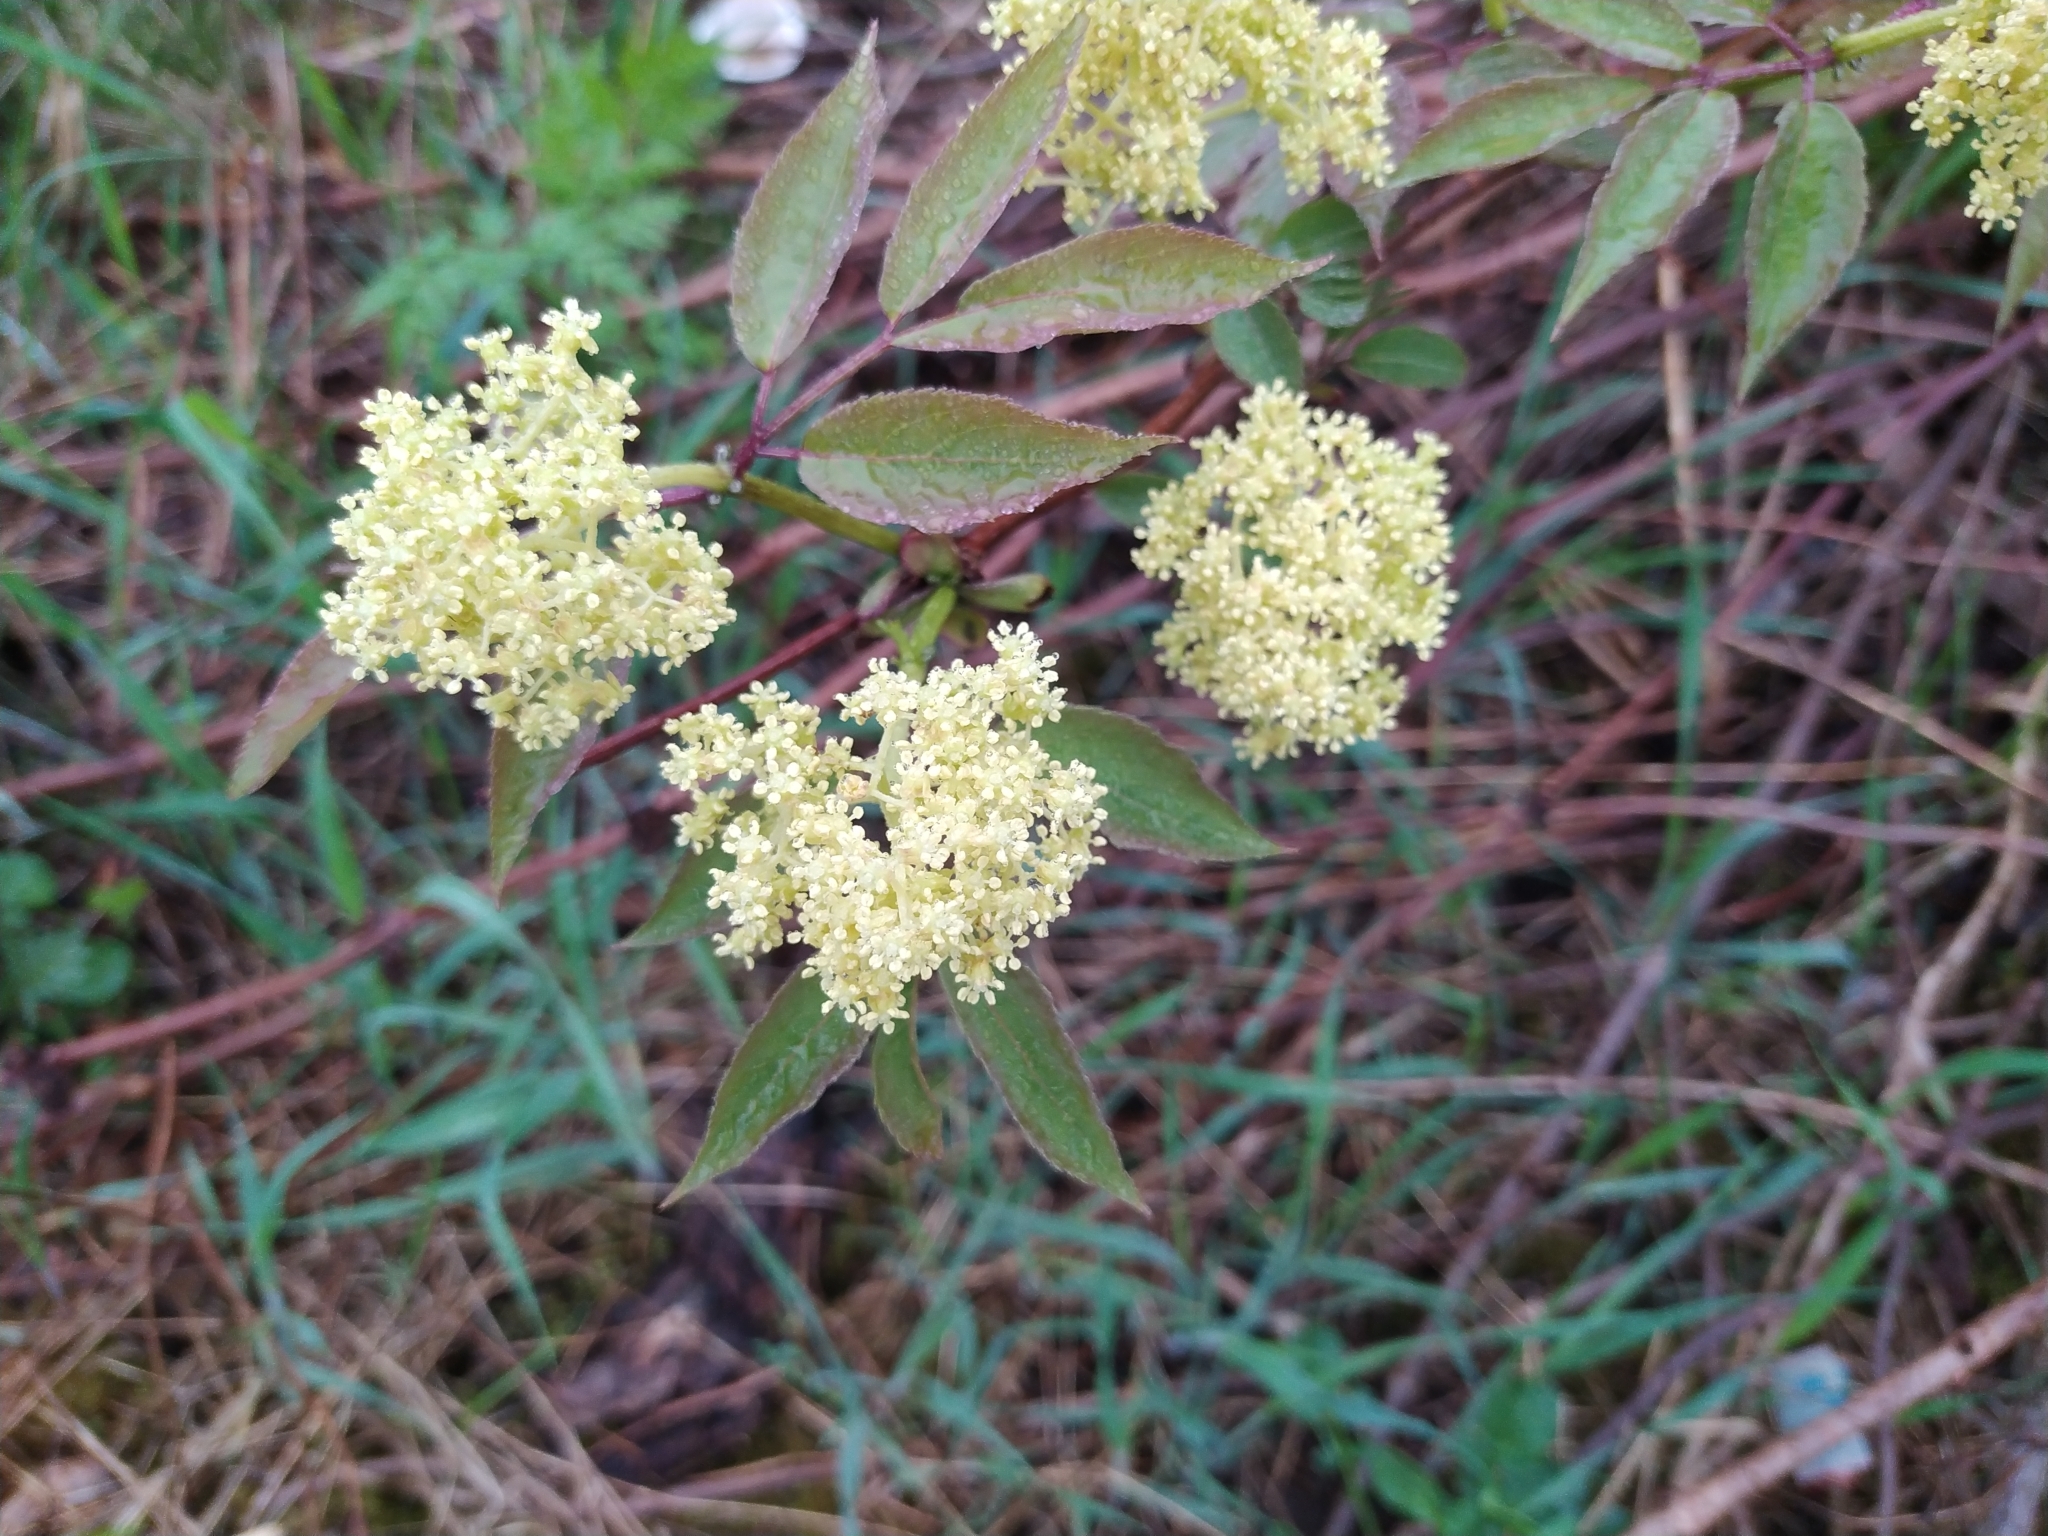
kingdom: Plantae
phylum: Tracheophyta
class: Magnoliopsida
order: Dipsacales
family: Viburnaceae
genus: Sambucus
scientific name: Sambucus racemosa
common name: Red-berried elder
